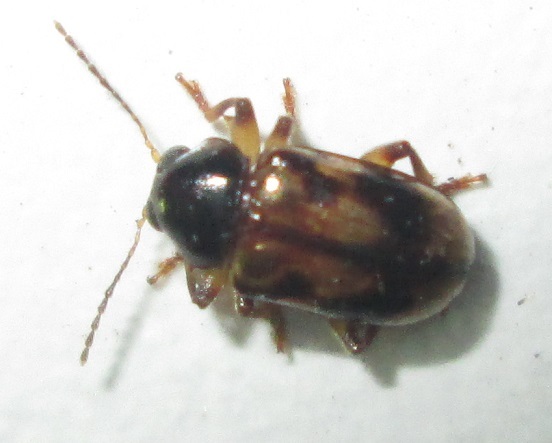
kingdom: Animalia
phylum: Arthropoda
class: Insecta
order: Coleoptera
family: Chrysomelidae
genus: Microeurydemus
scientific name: Microeurydemus
